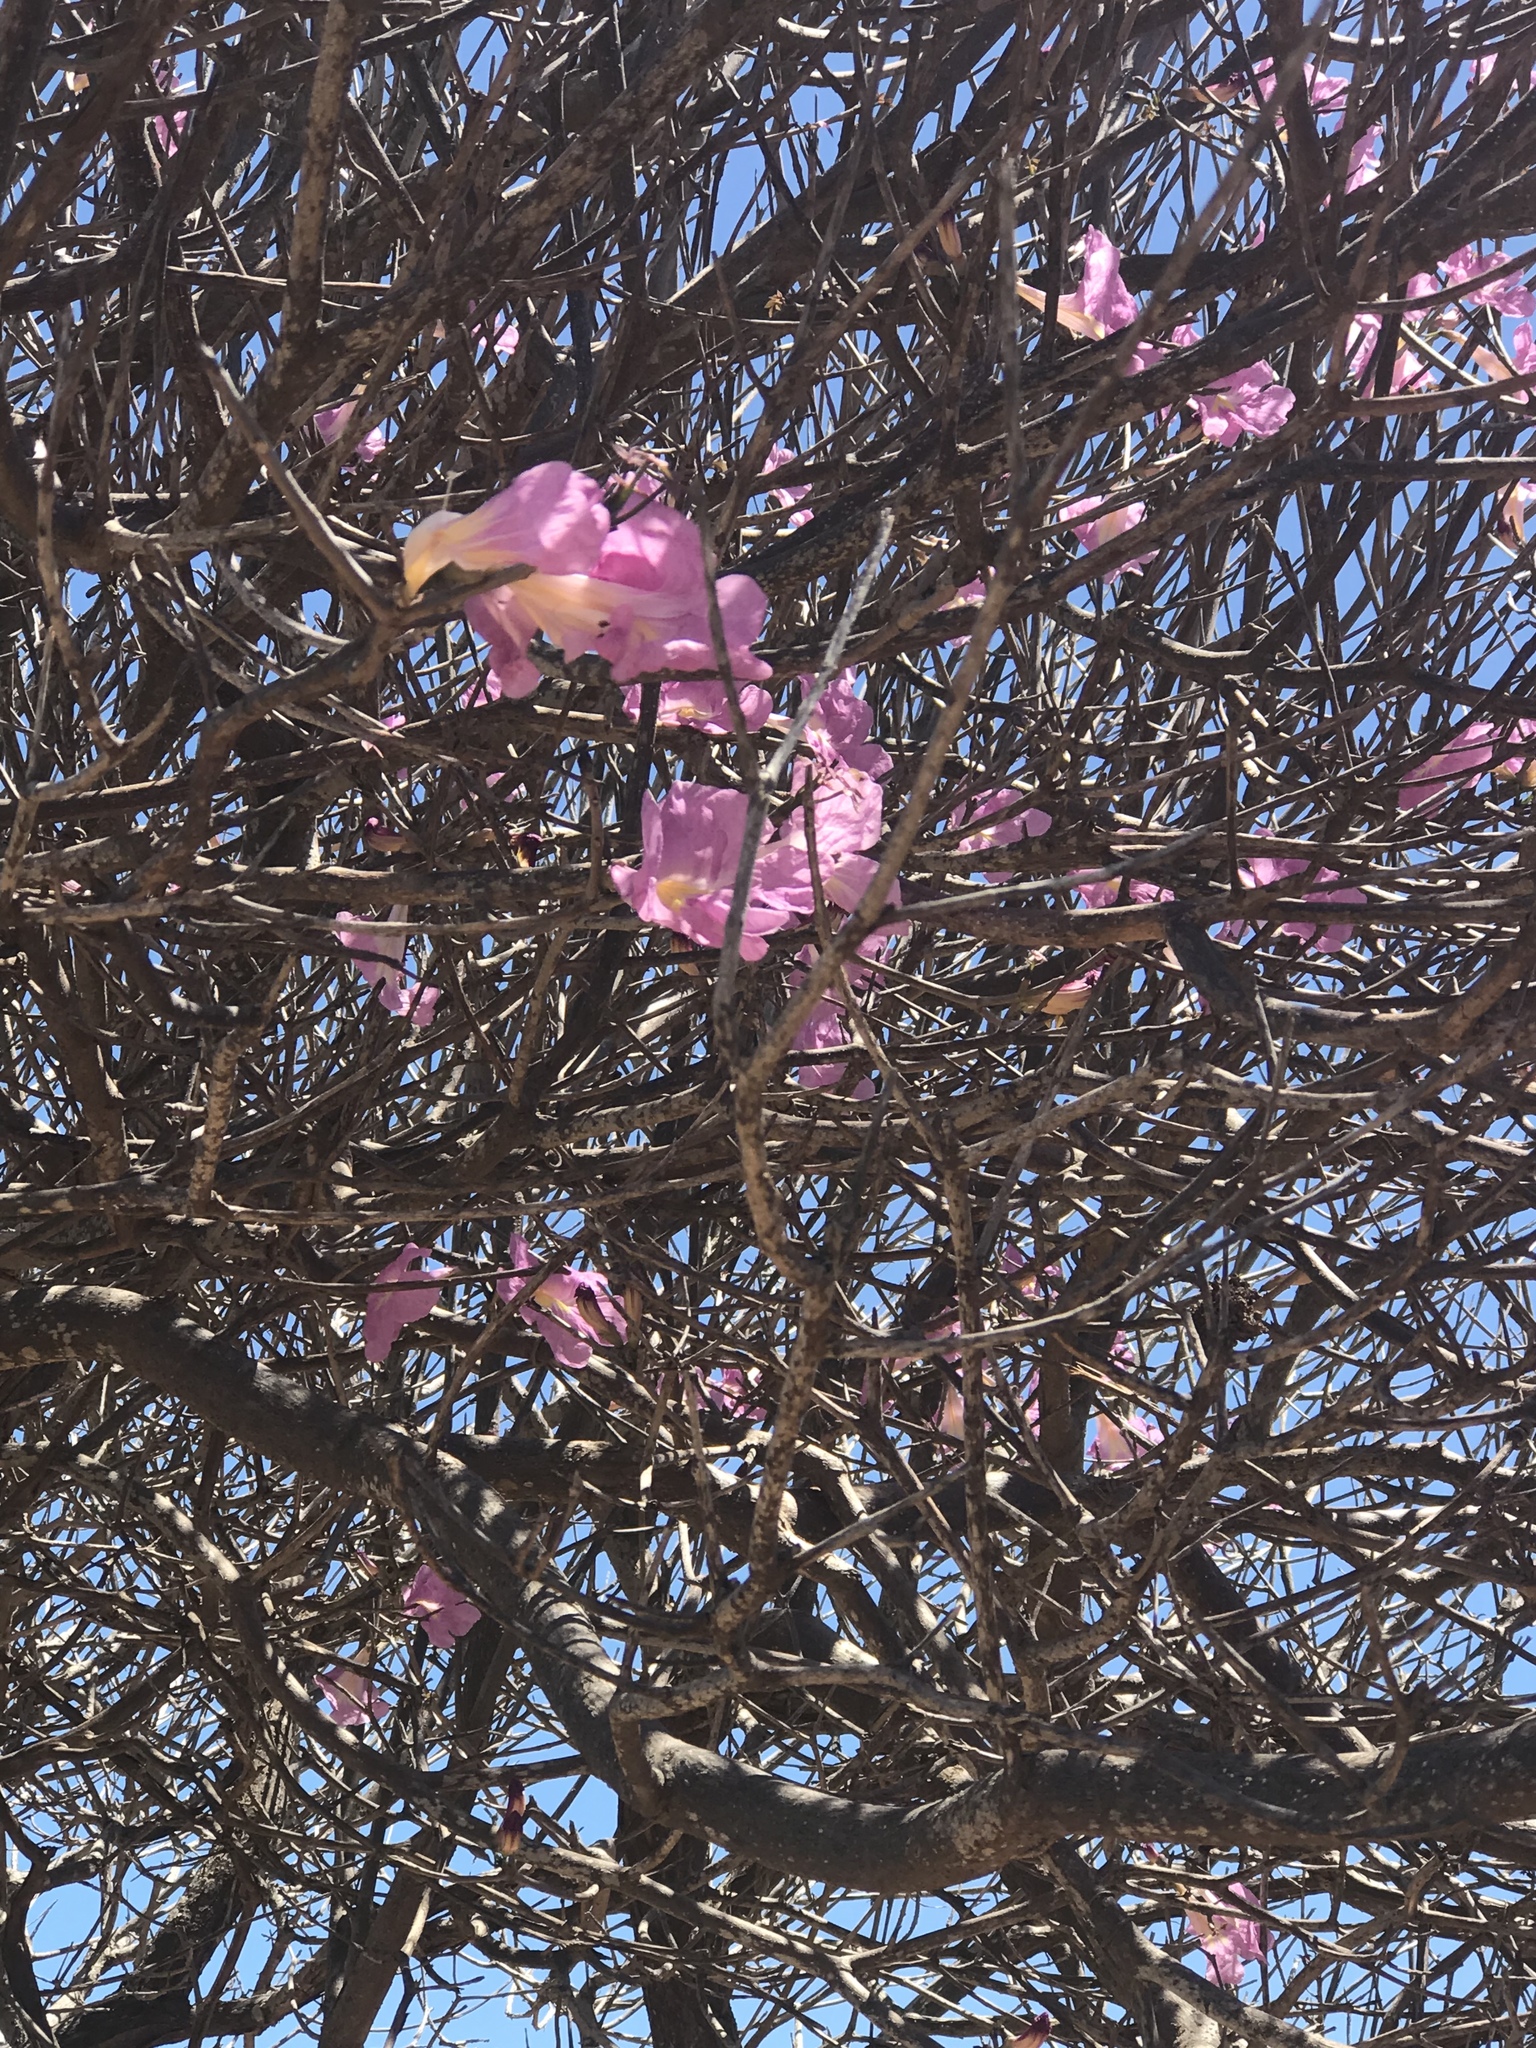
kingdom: Plantae
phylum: Tracheophyta
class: Magnoliopsida
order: Lamiales
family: Bignoniaceae
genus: Tabebuia
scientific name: Tabebuia roseoalba
